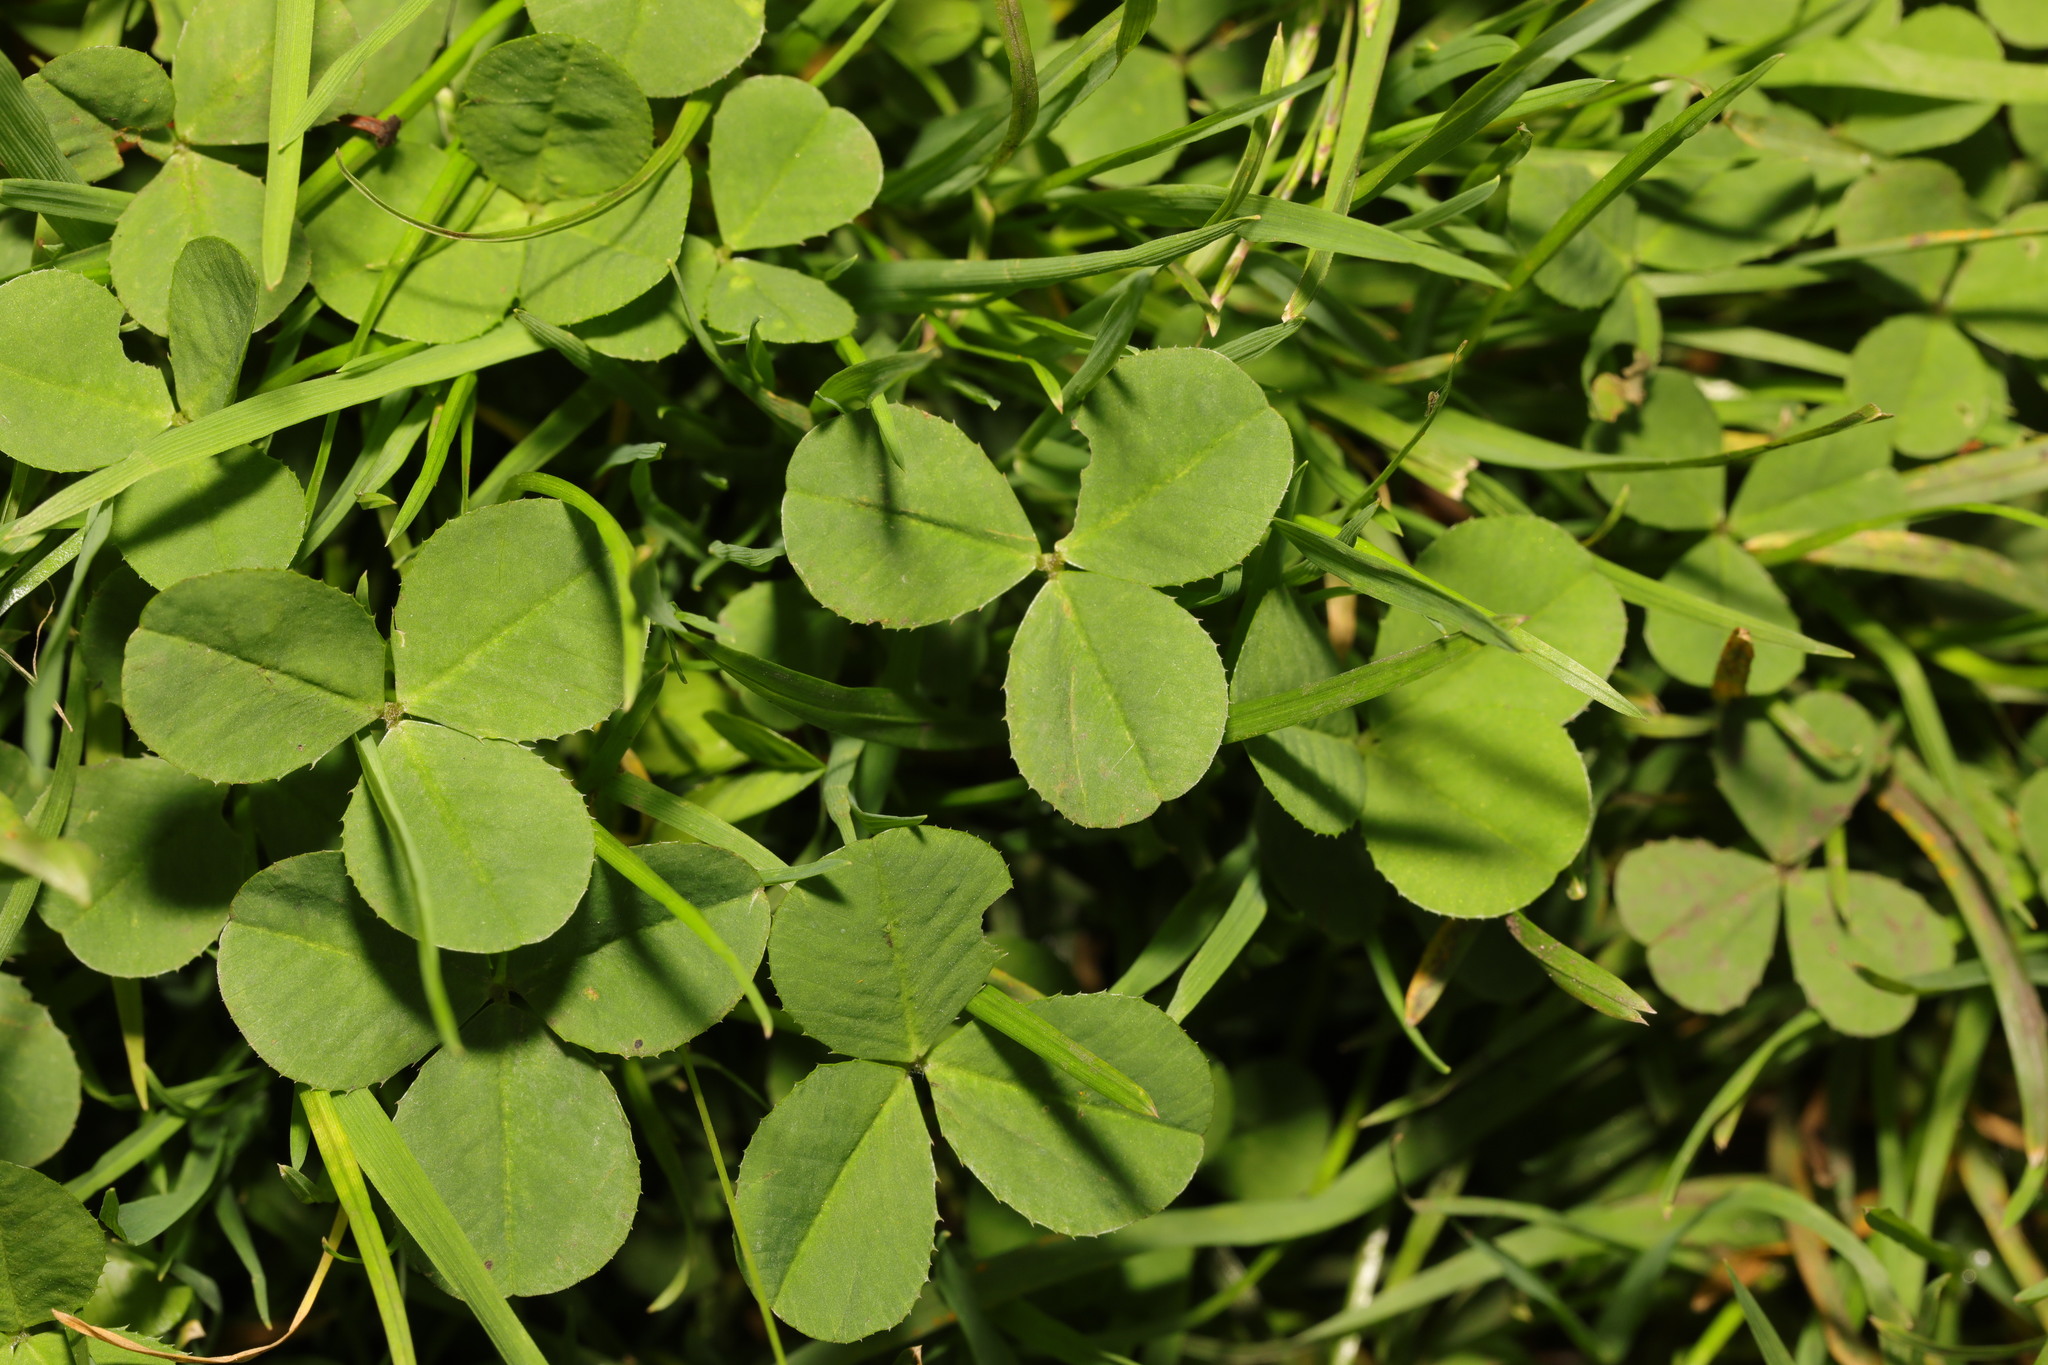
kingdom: Plantae
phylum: Tracheophyta
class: Magnoliopsida
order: Fabales
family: Fabaceae
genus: Trifolium
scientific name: Trifolium repens
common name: White clover
